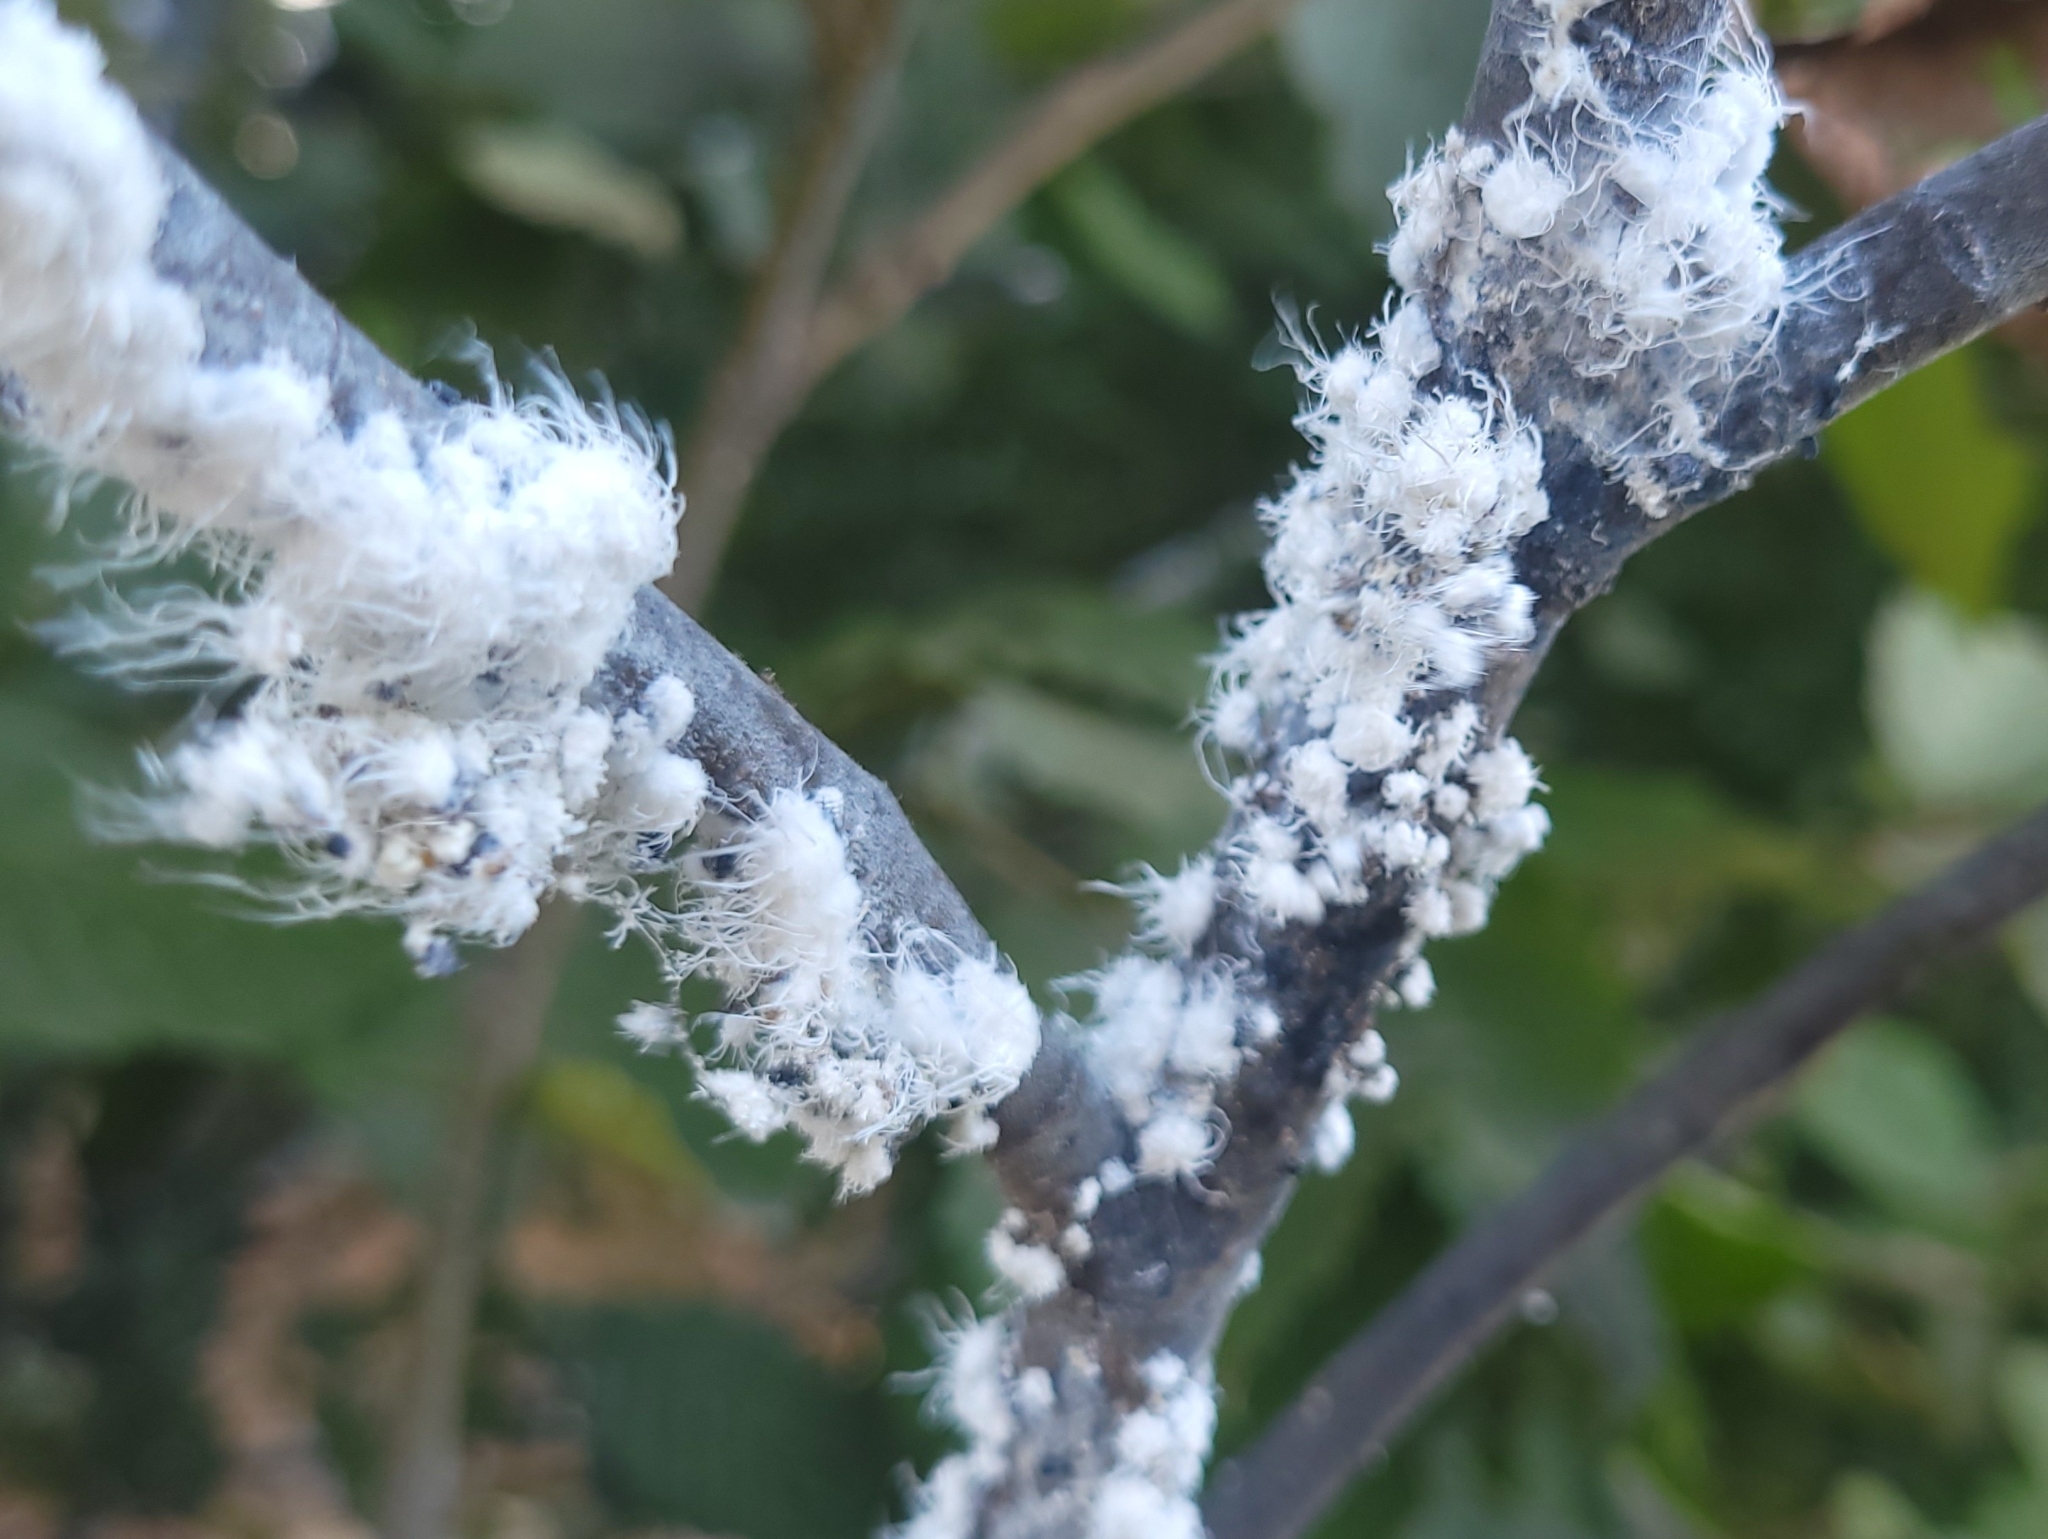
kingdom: Animalia
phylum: Arthropoda
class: Insecta
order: Hemiptera
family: Aphididae
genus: Prociphilus
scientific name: Prociphilus tessellatus
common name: Woolly alder aphid
